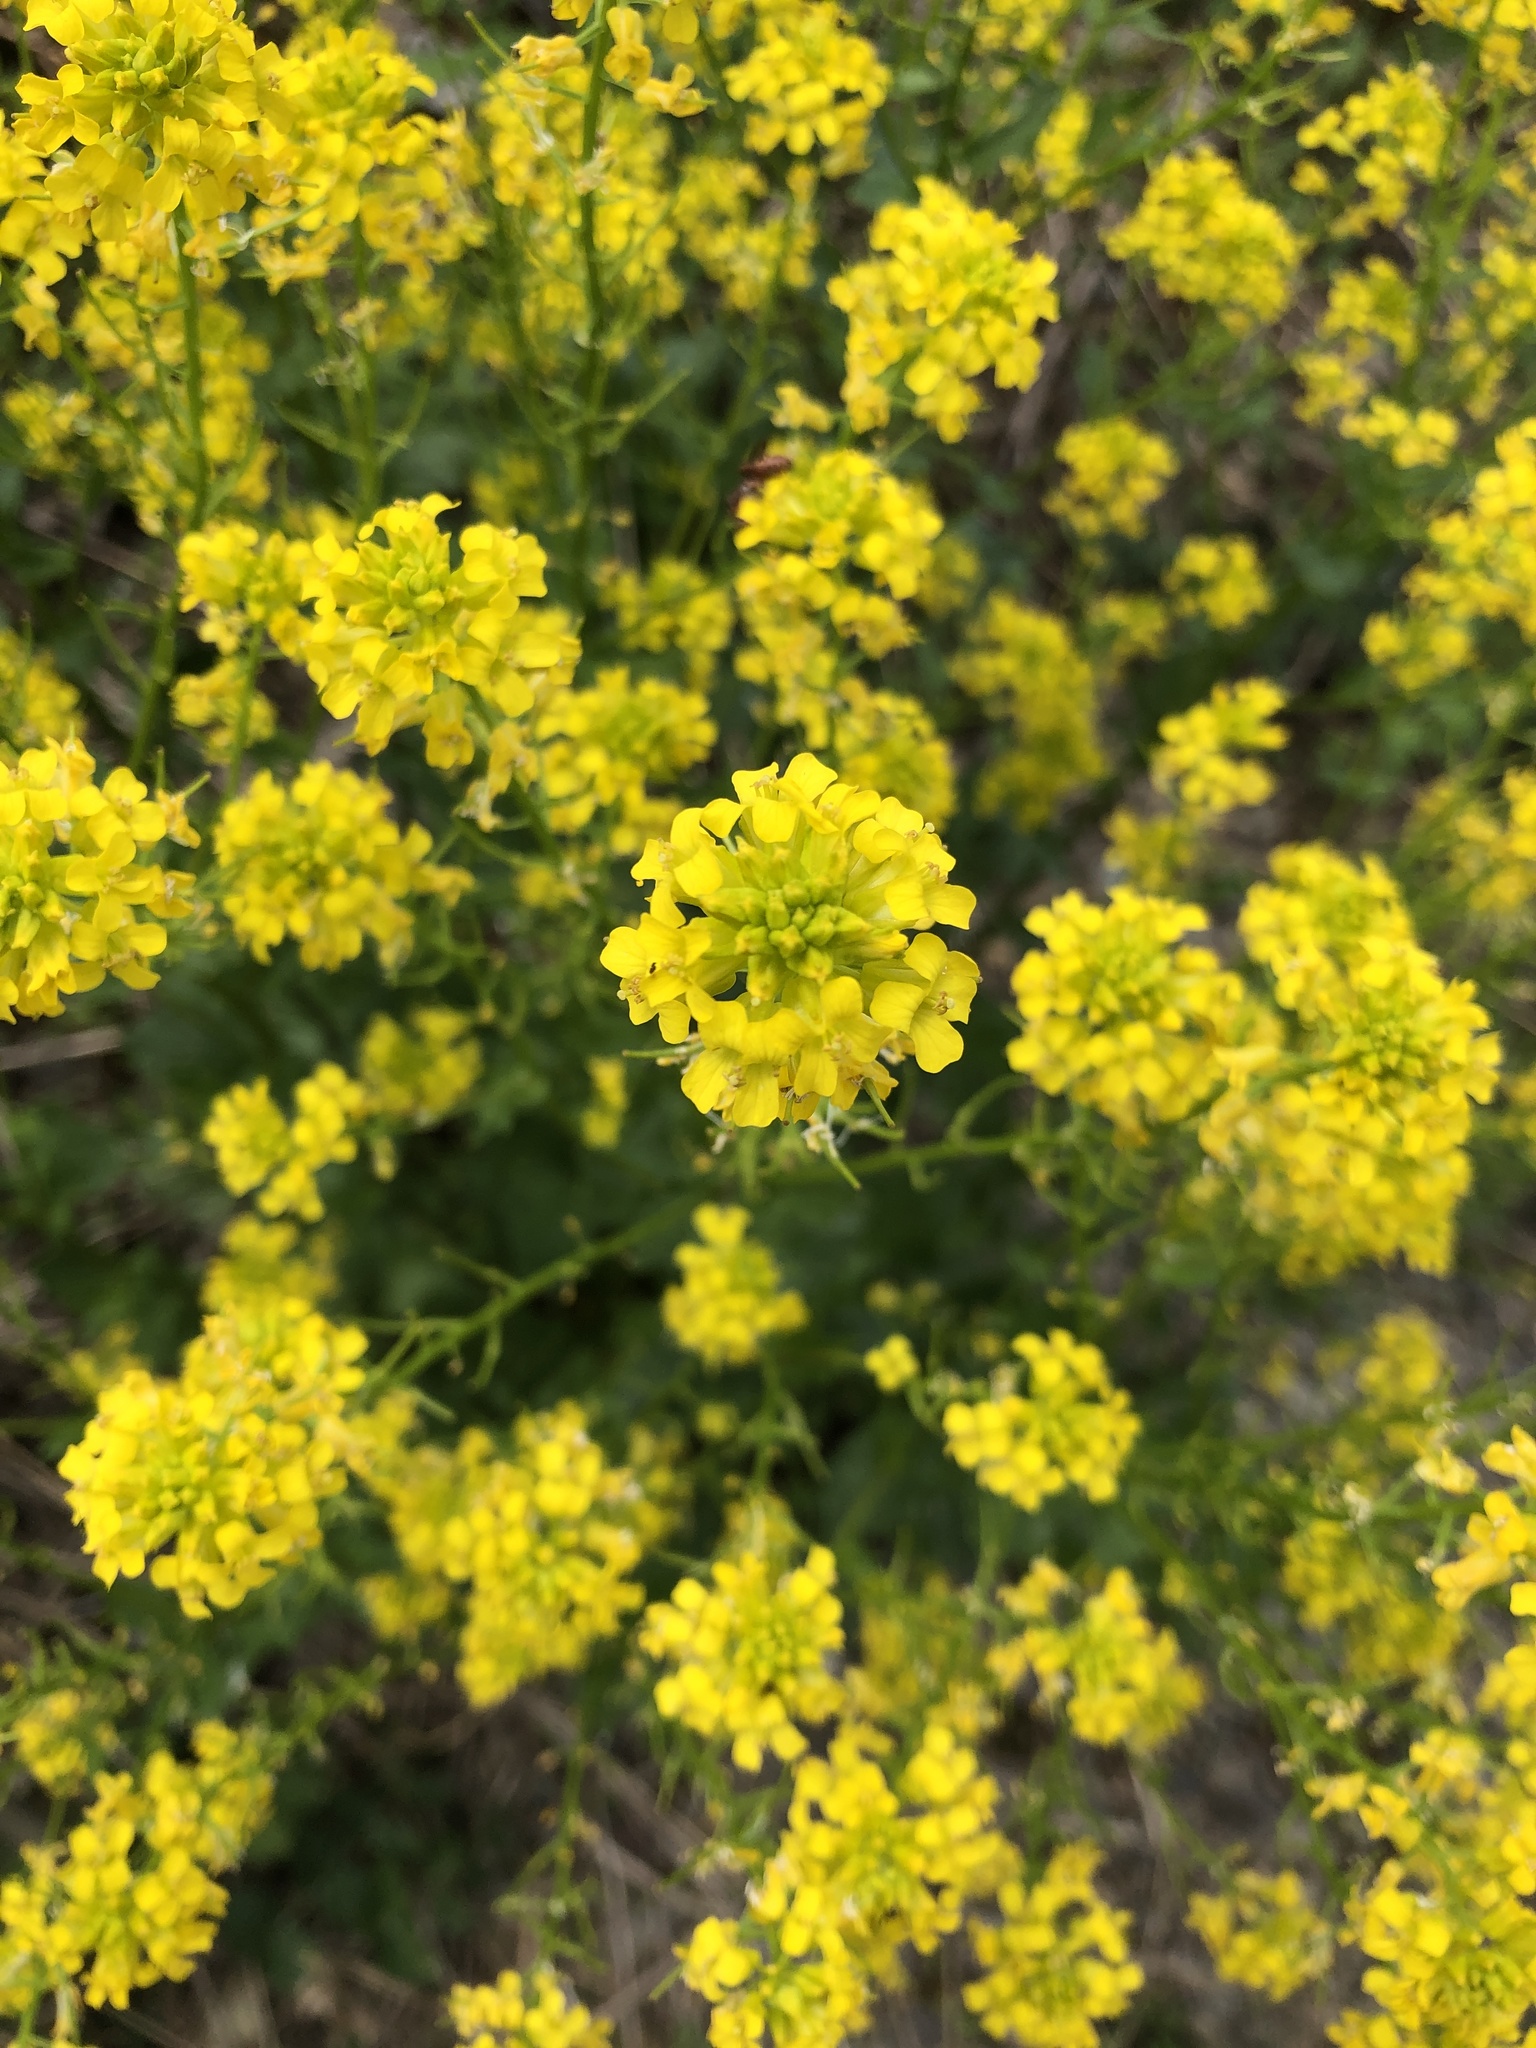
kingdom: Plantae
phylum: Tracheophyta
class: Magnoliopsida
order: Brassicales
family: Brassicaceae
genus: Barbarea
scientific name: Barbarea vulgaris
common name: Cressy-greens
